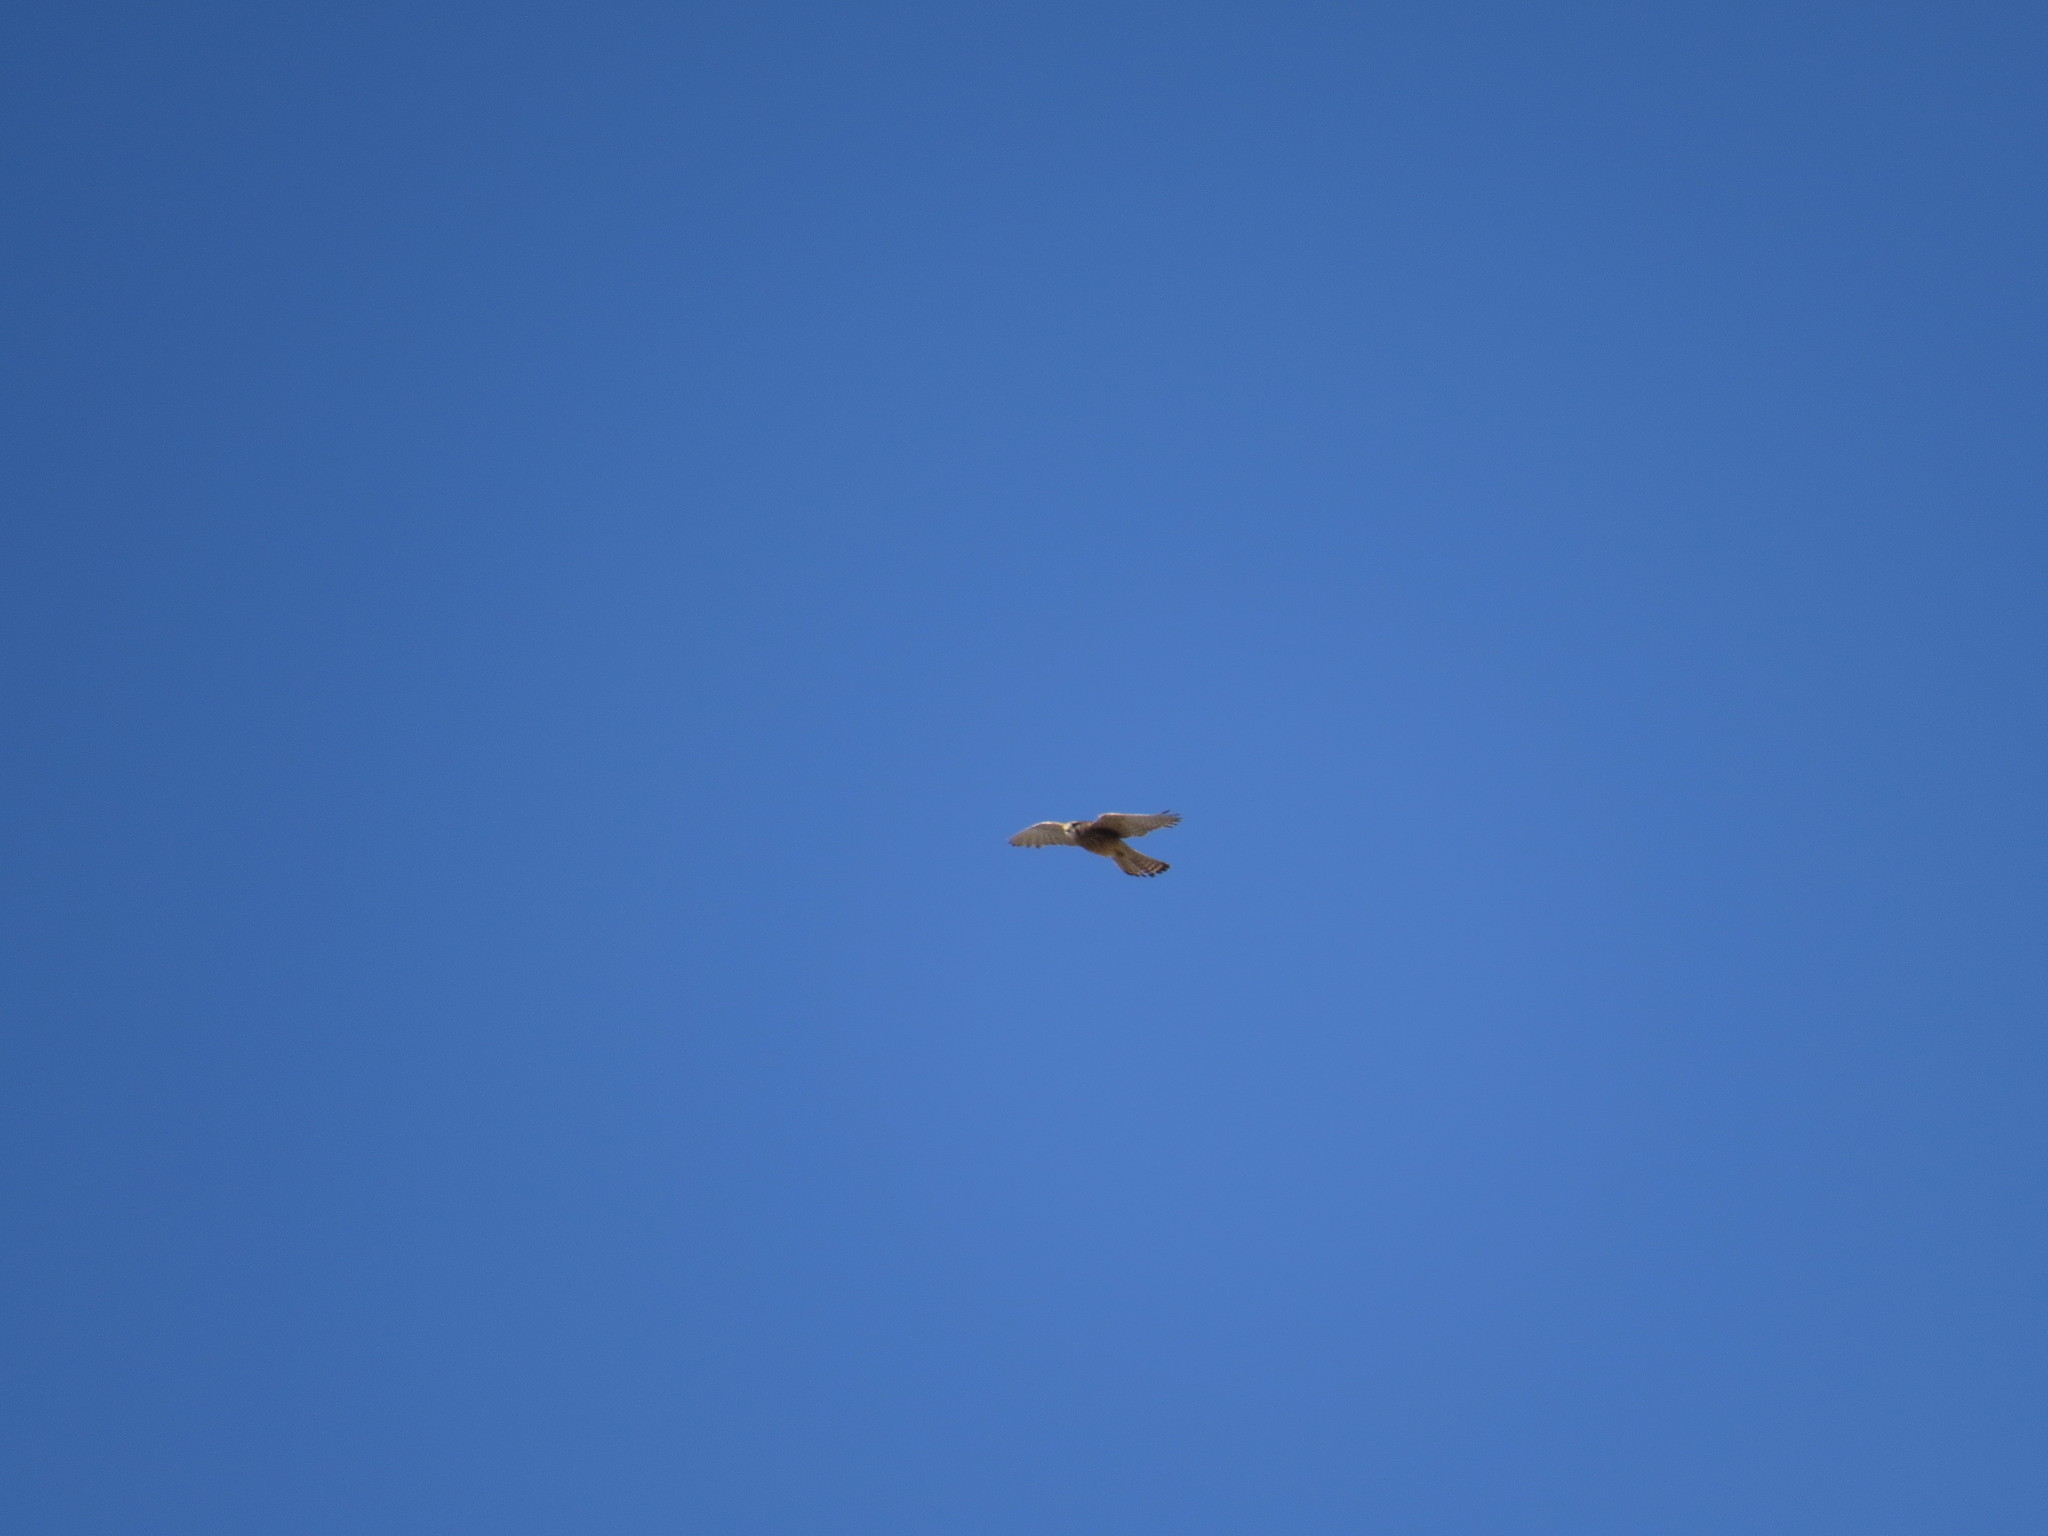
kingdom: Animalia
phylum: Chordata
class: Aves
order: Falconiformes
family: Falconidae
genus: Falco
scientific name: Falco tinnunculus
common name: Common kestrel
